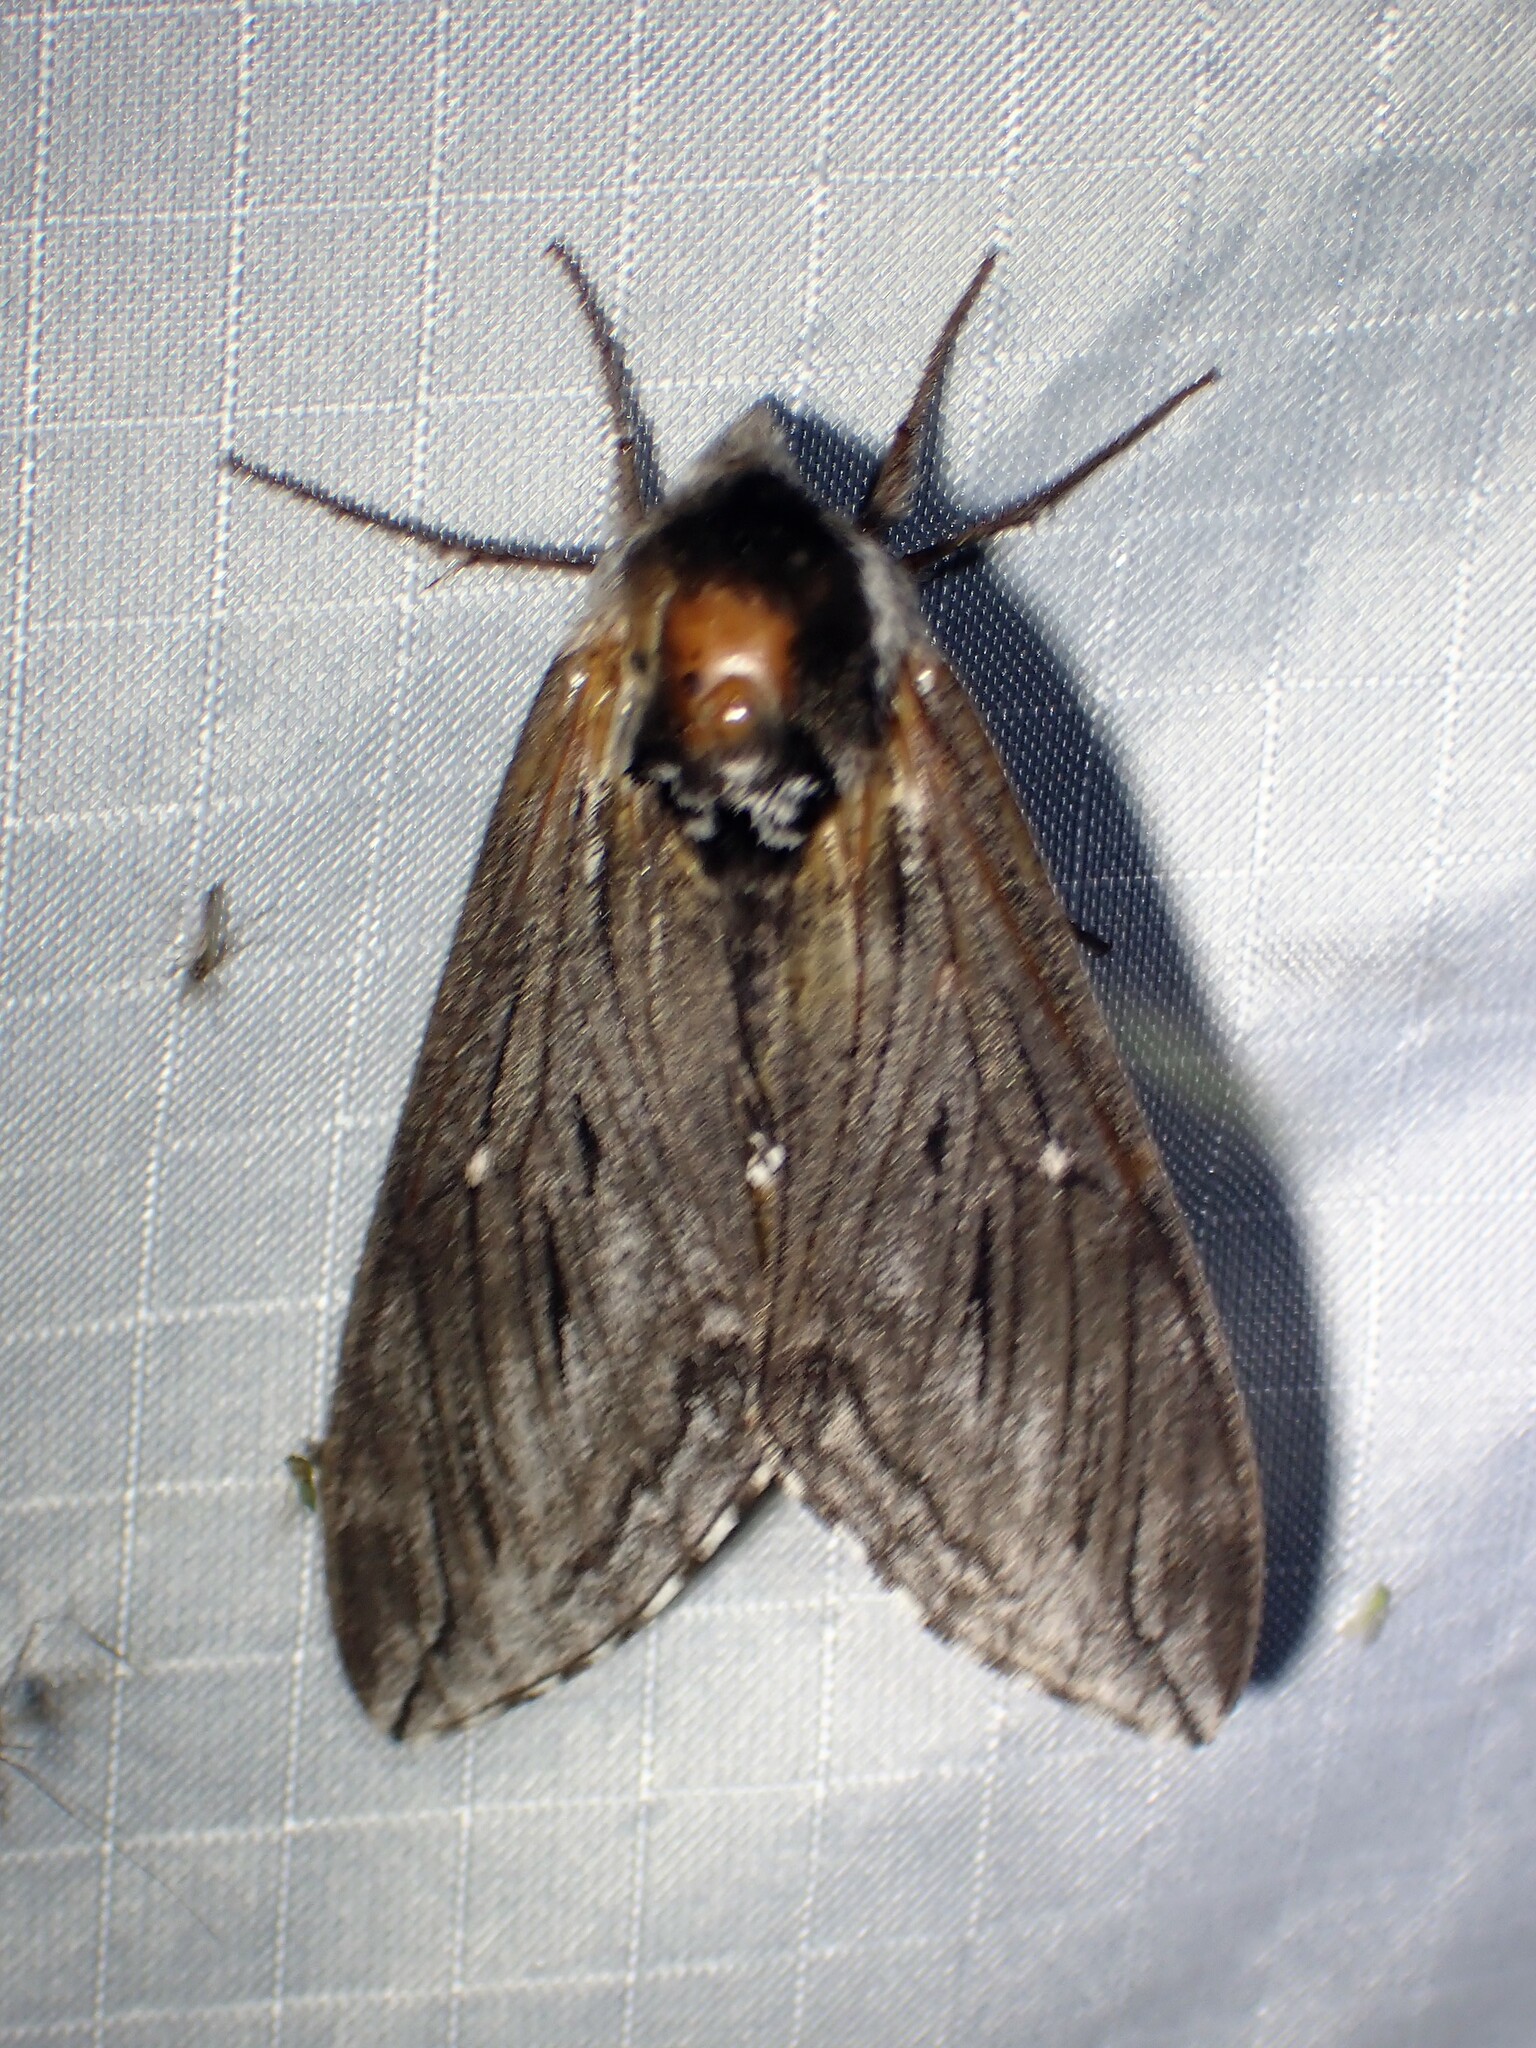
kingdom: Animalia
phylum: Arthropoda
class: Insecta
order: Lepidoptera
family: Sphingidae
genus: Sphinx
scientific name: Sphinx poecila
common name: Northern apple sphinx
